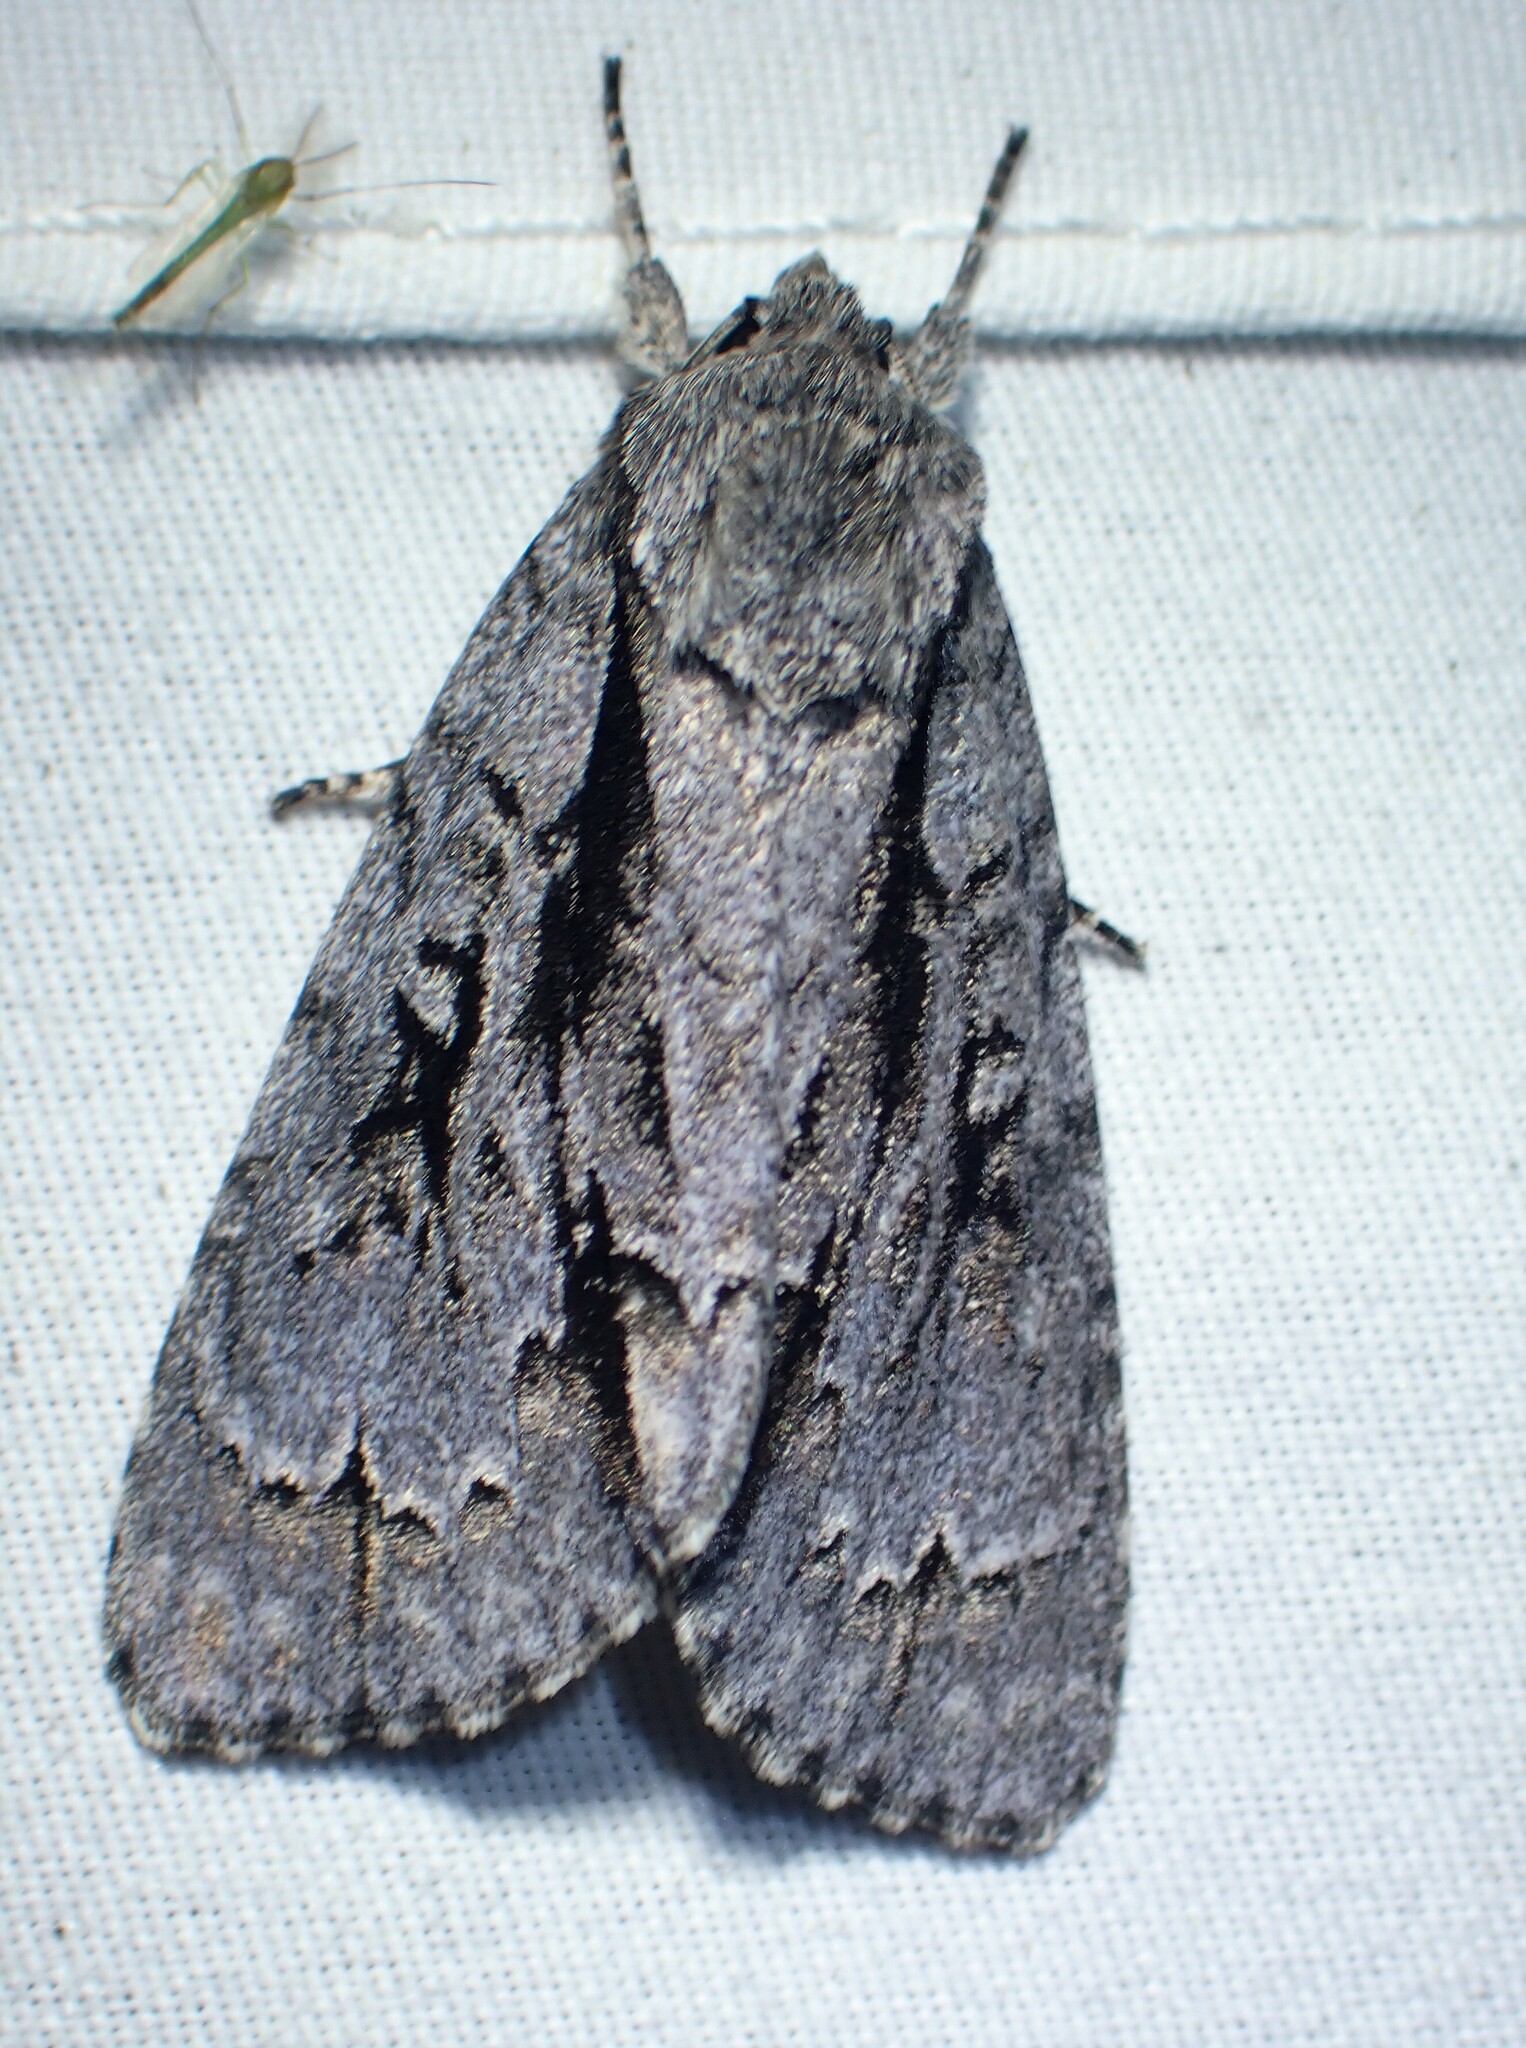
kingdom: Animalia
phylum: Arthropoda
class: Insecta
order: Lepidoptera
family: Noctuidae
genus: Acronicta
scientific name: Acronicta hasta
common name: Cherry dagger
